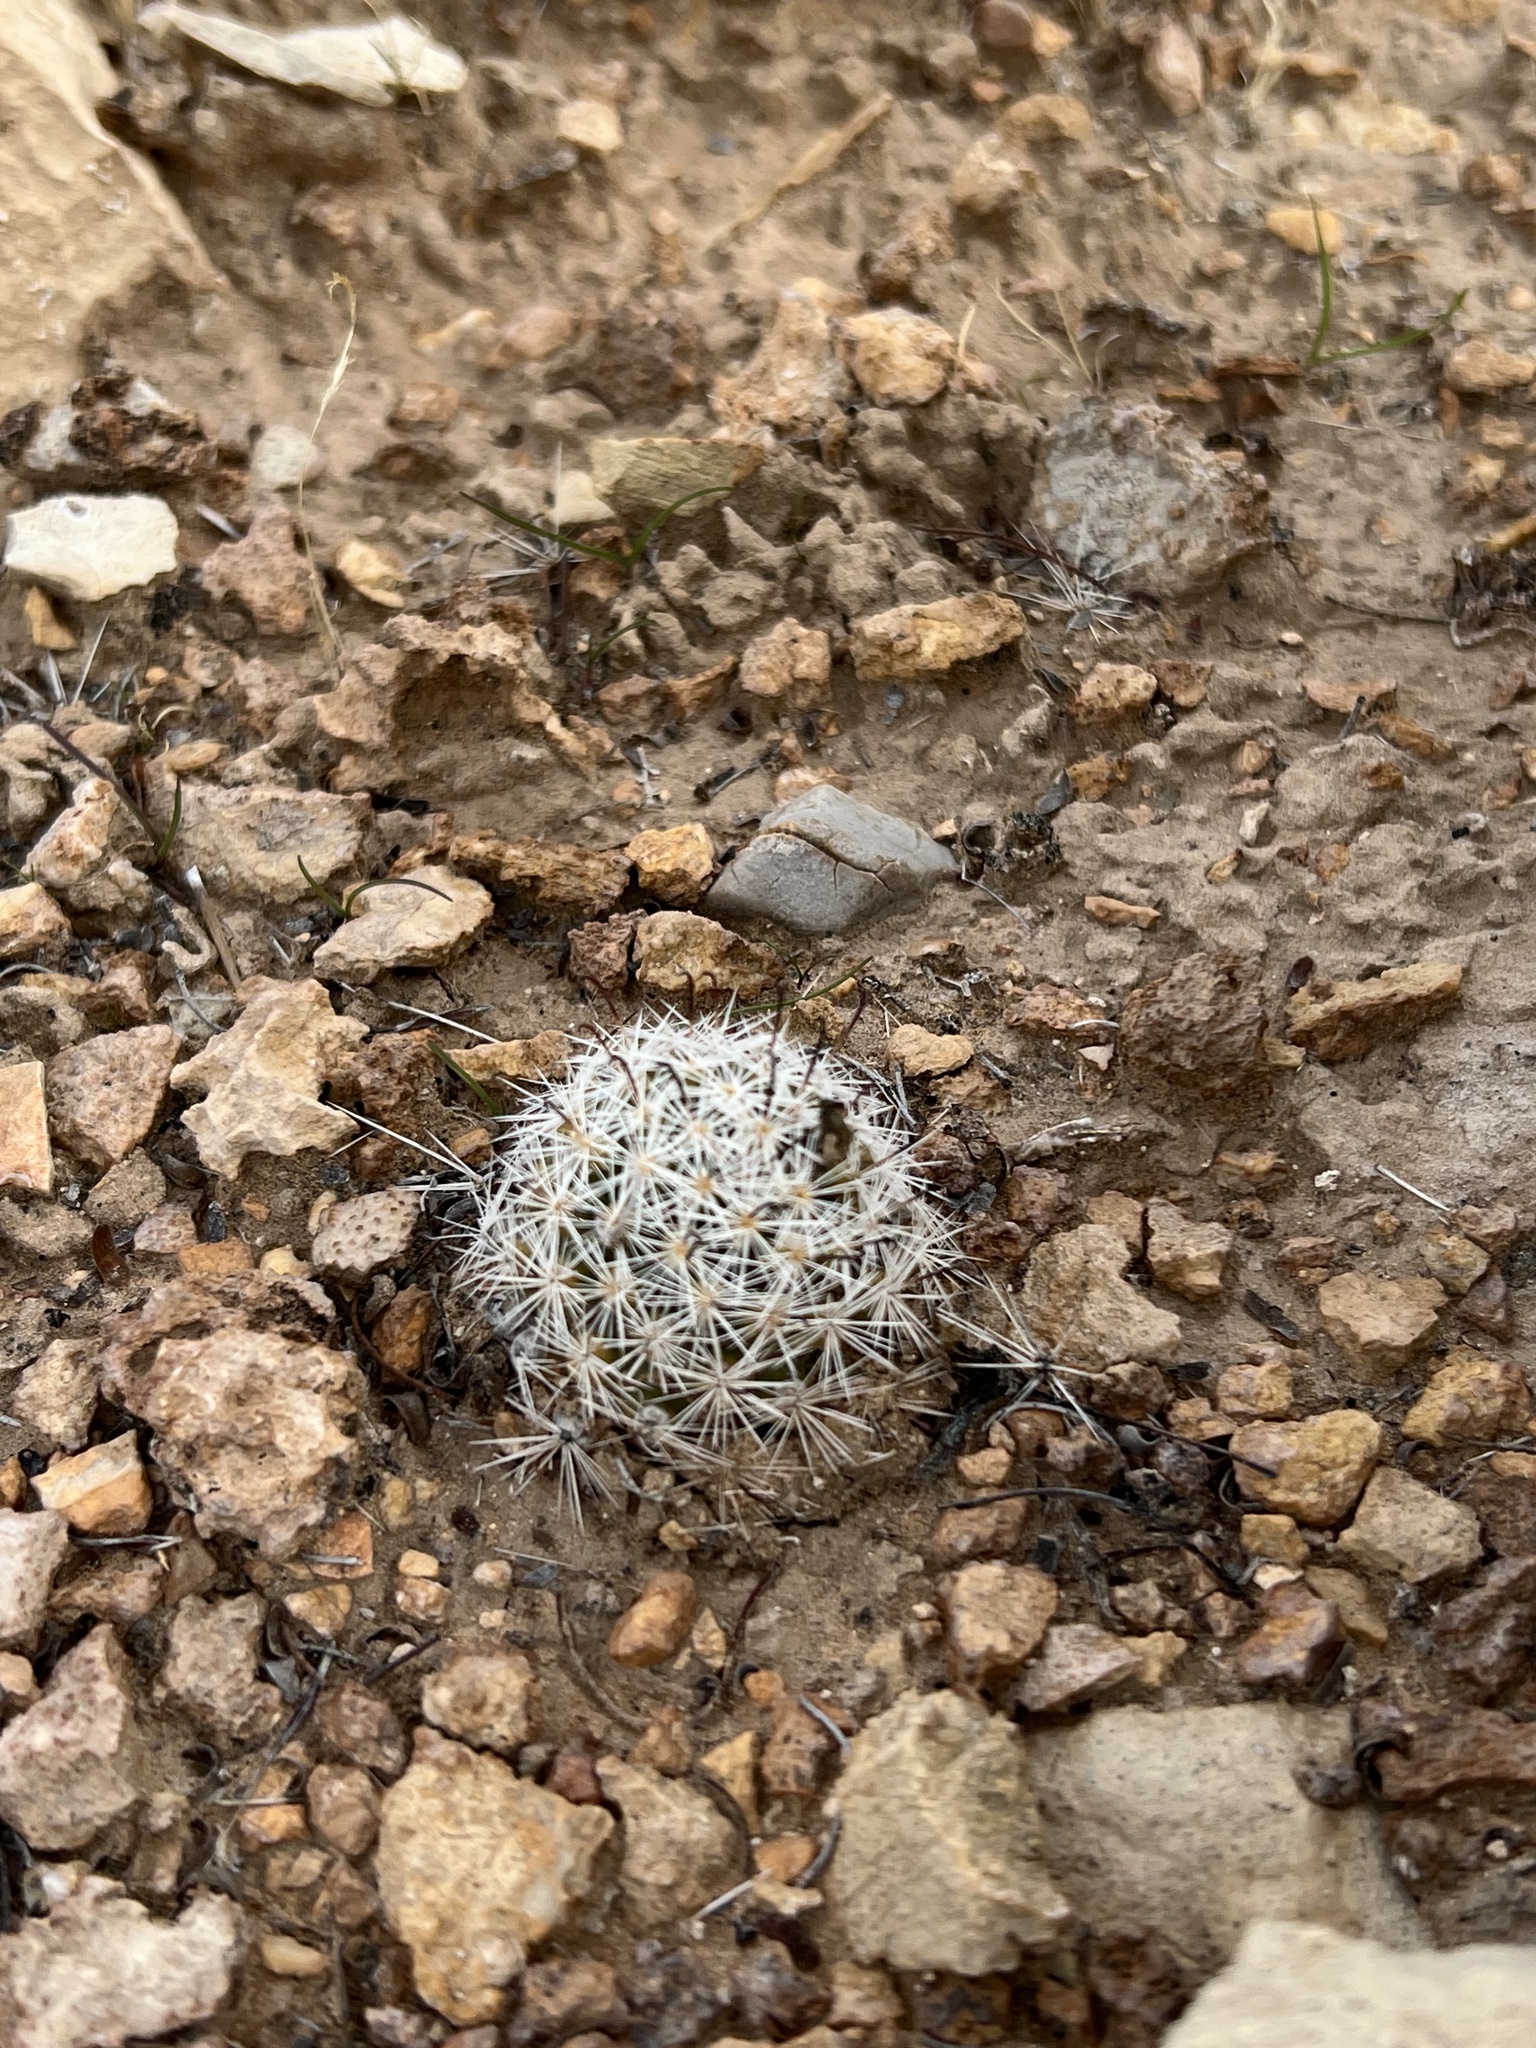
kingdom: Plantae
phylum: Tracheophyta
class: Magnoliopsida
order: Caryophyllales
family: Cactaceae
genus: Cochemiea
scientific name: Cochemiea tetrancistra
